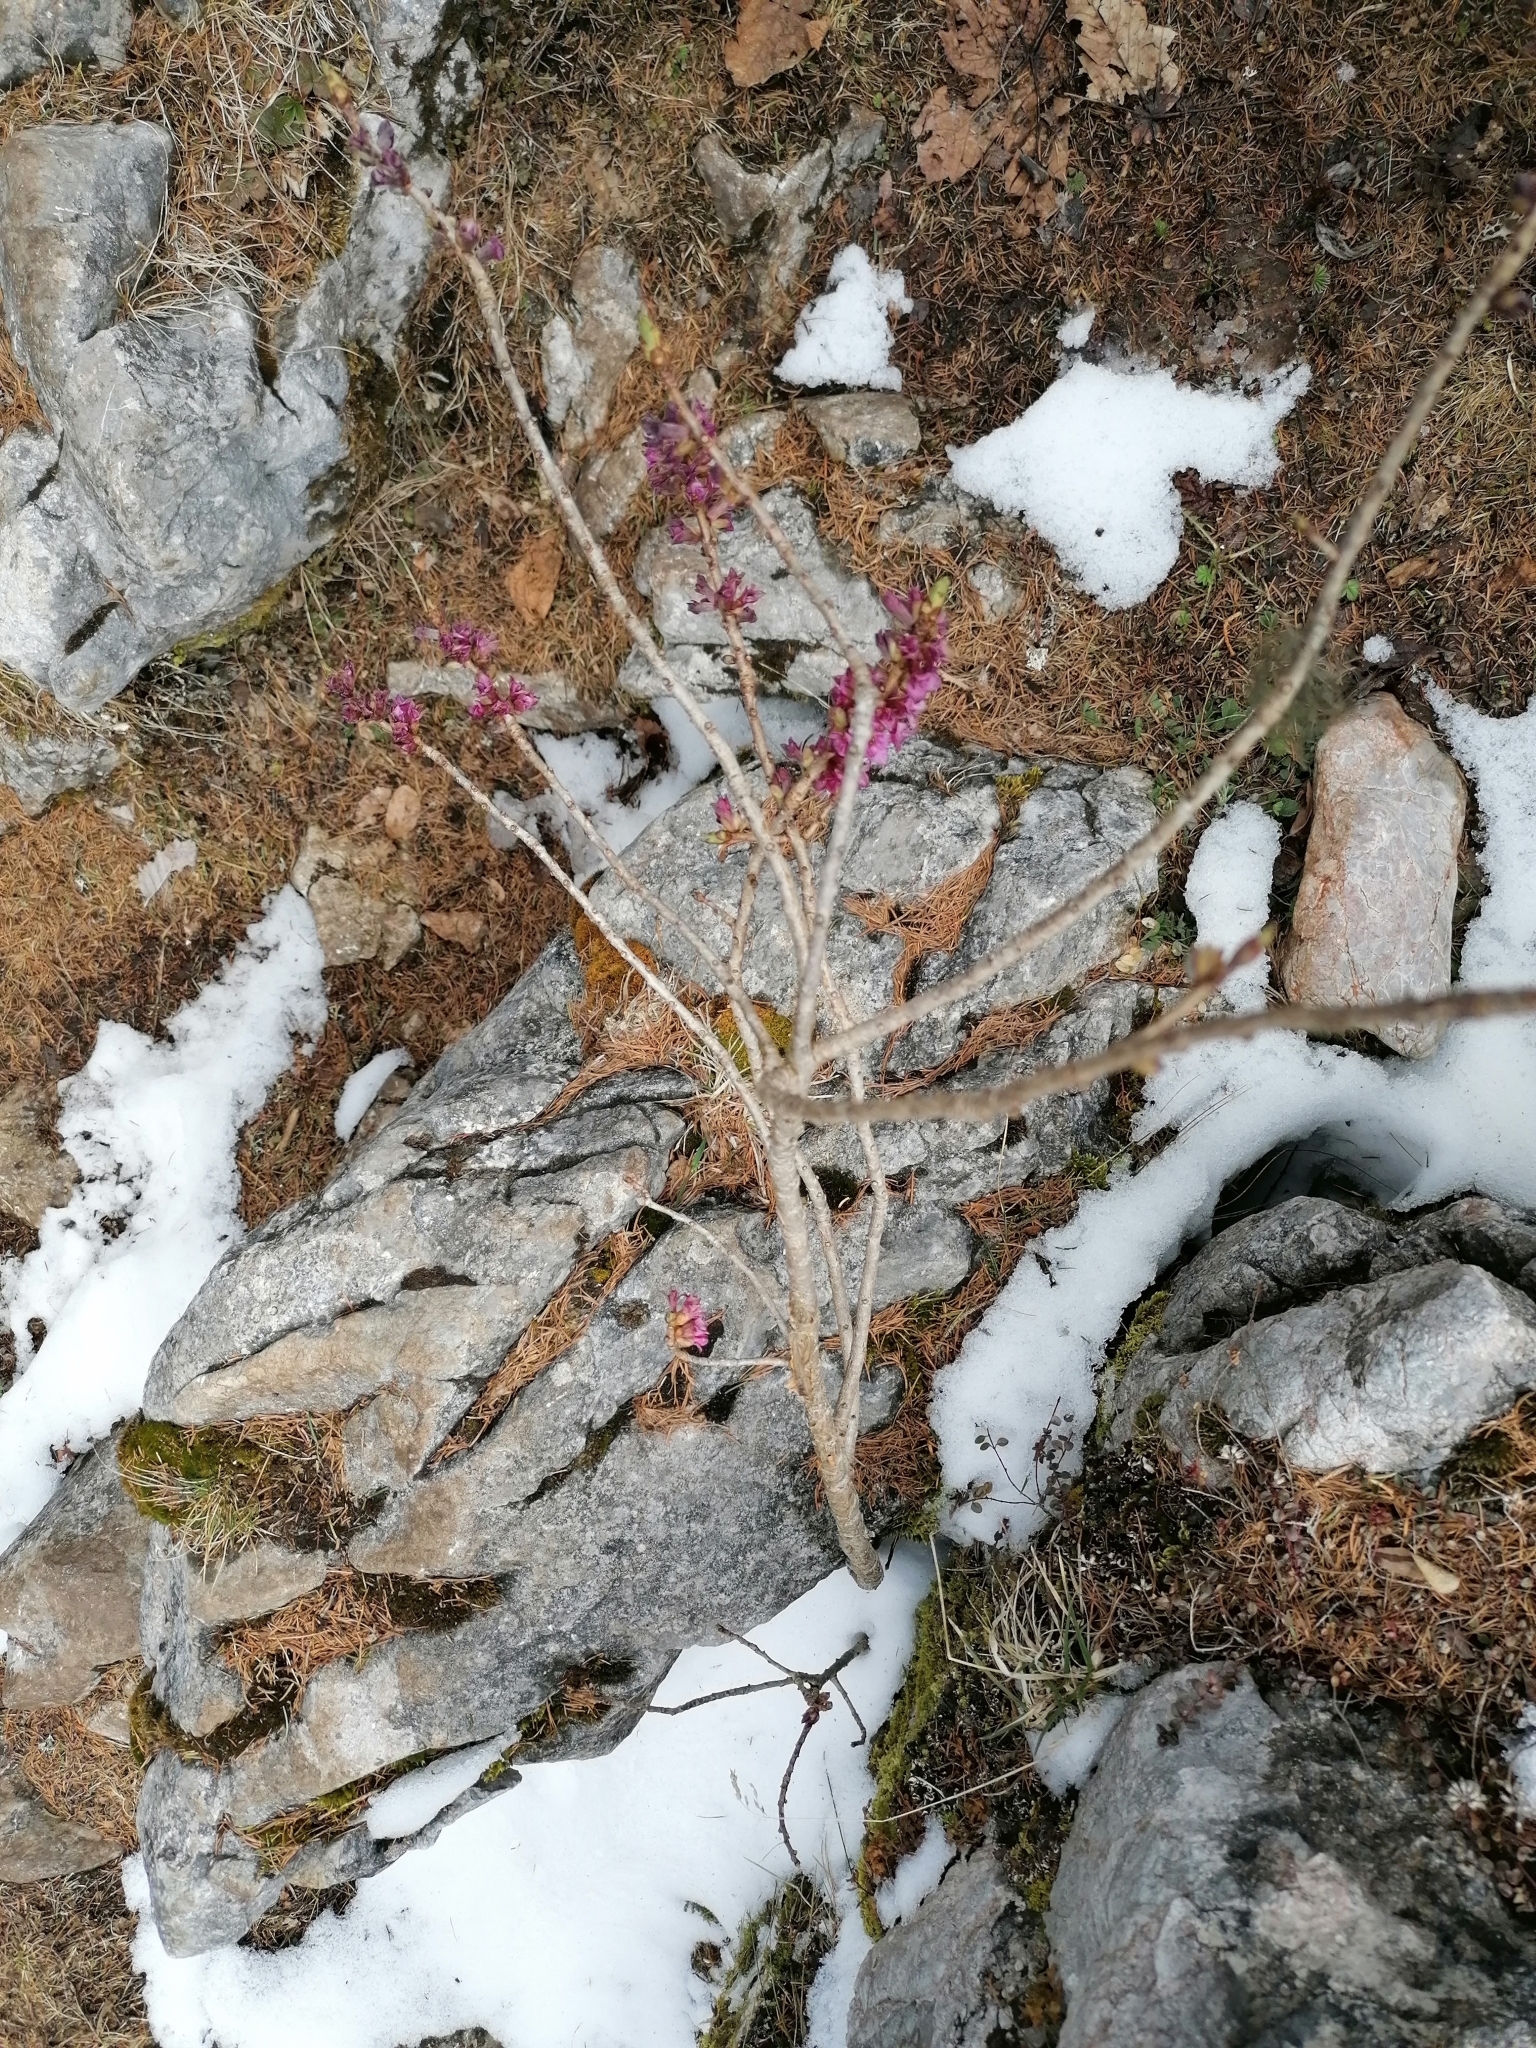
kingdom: Plantae
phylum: Tracheophyta
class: Magnoliopsida
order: Malvales
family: Thymelaeaceae
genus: Daphne
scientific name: Daphne mezereum
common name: Mezereon
